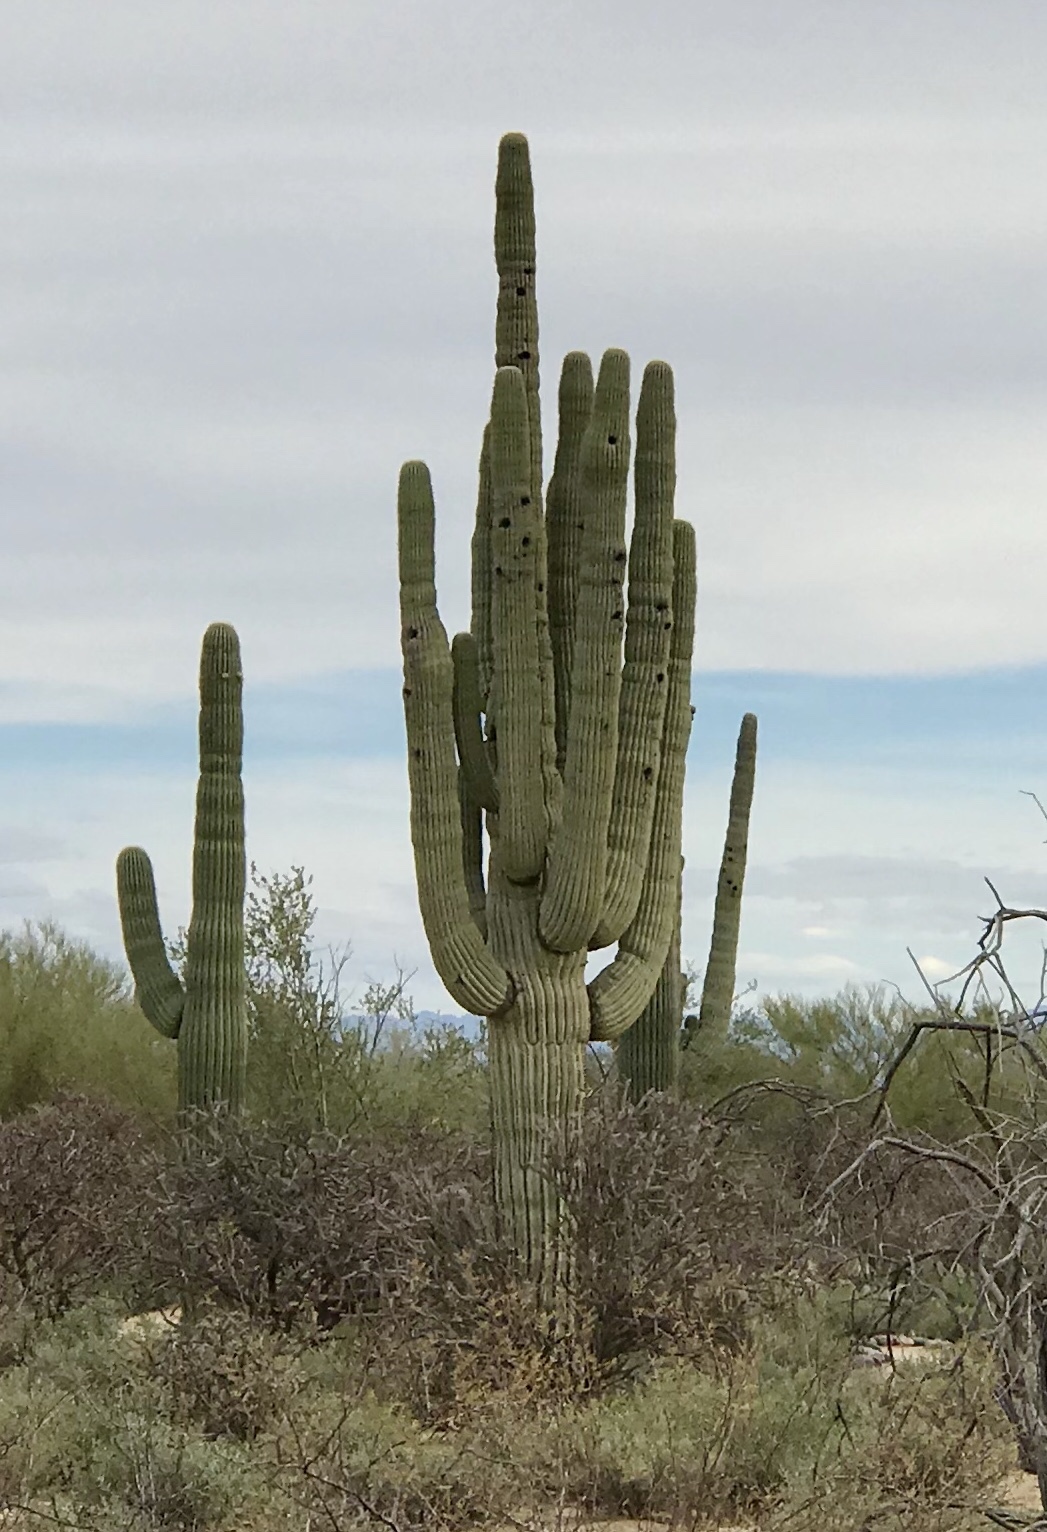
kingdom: Plantae
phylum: Tracheophyta
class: Magnoliopsida
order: Caryophyllales
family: Cactaceae
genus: Carnegiea
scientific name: Carnegiea gigantea
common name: Saguaro
